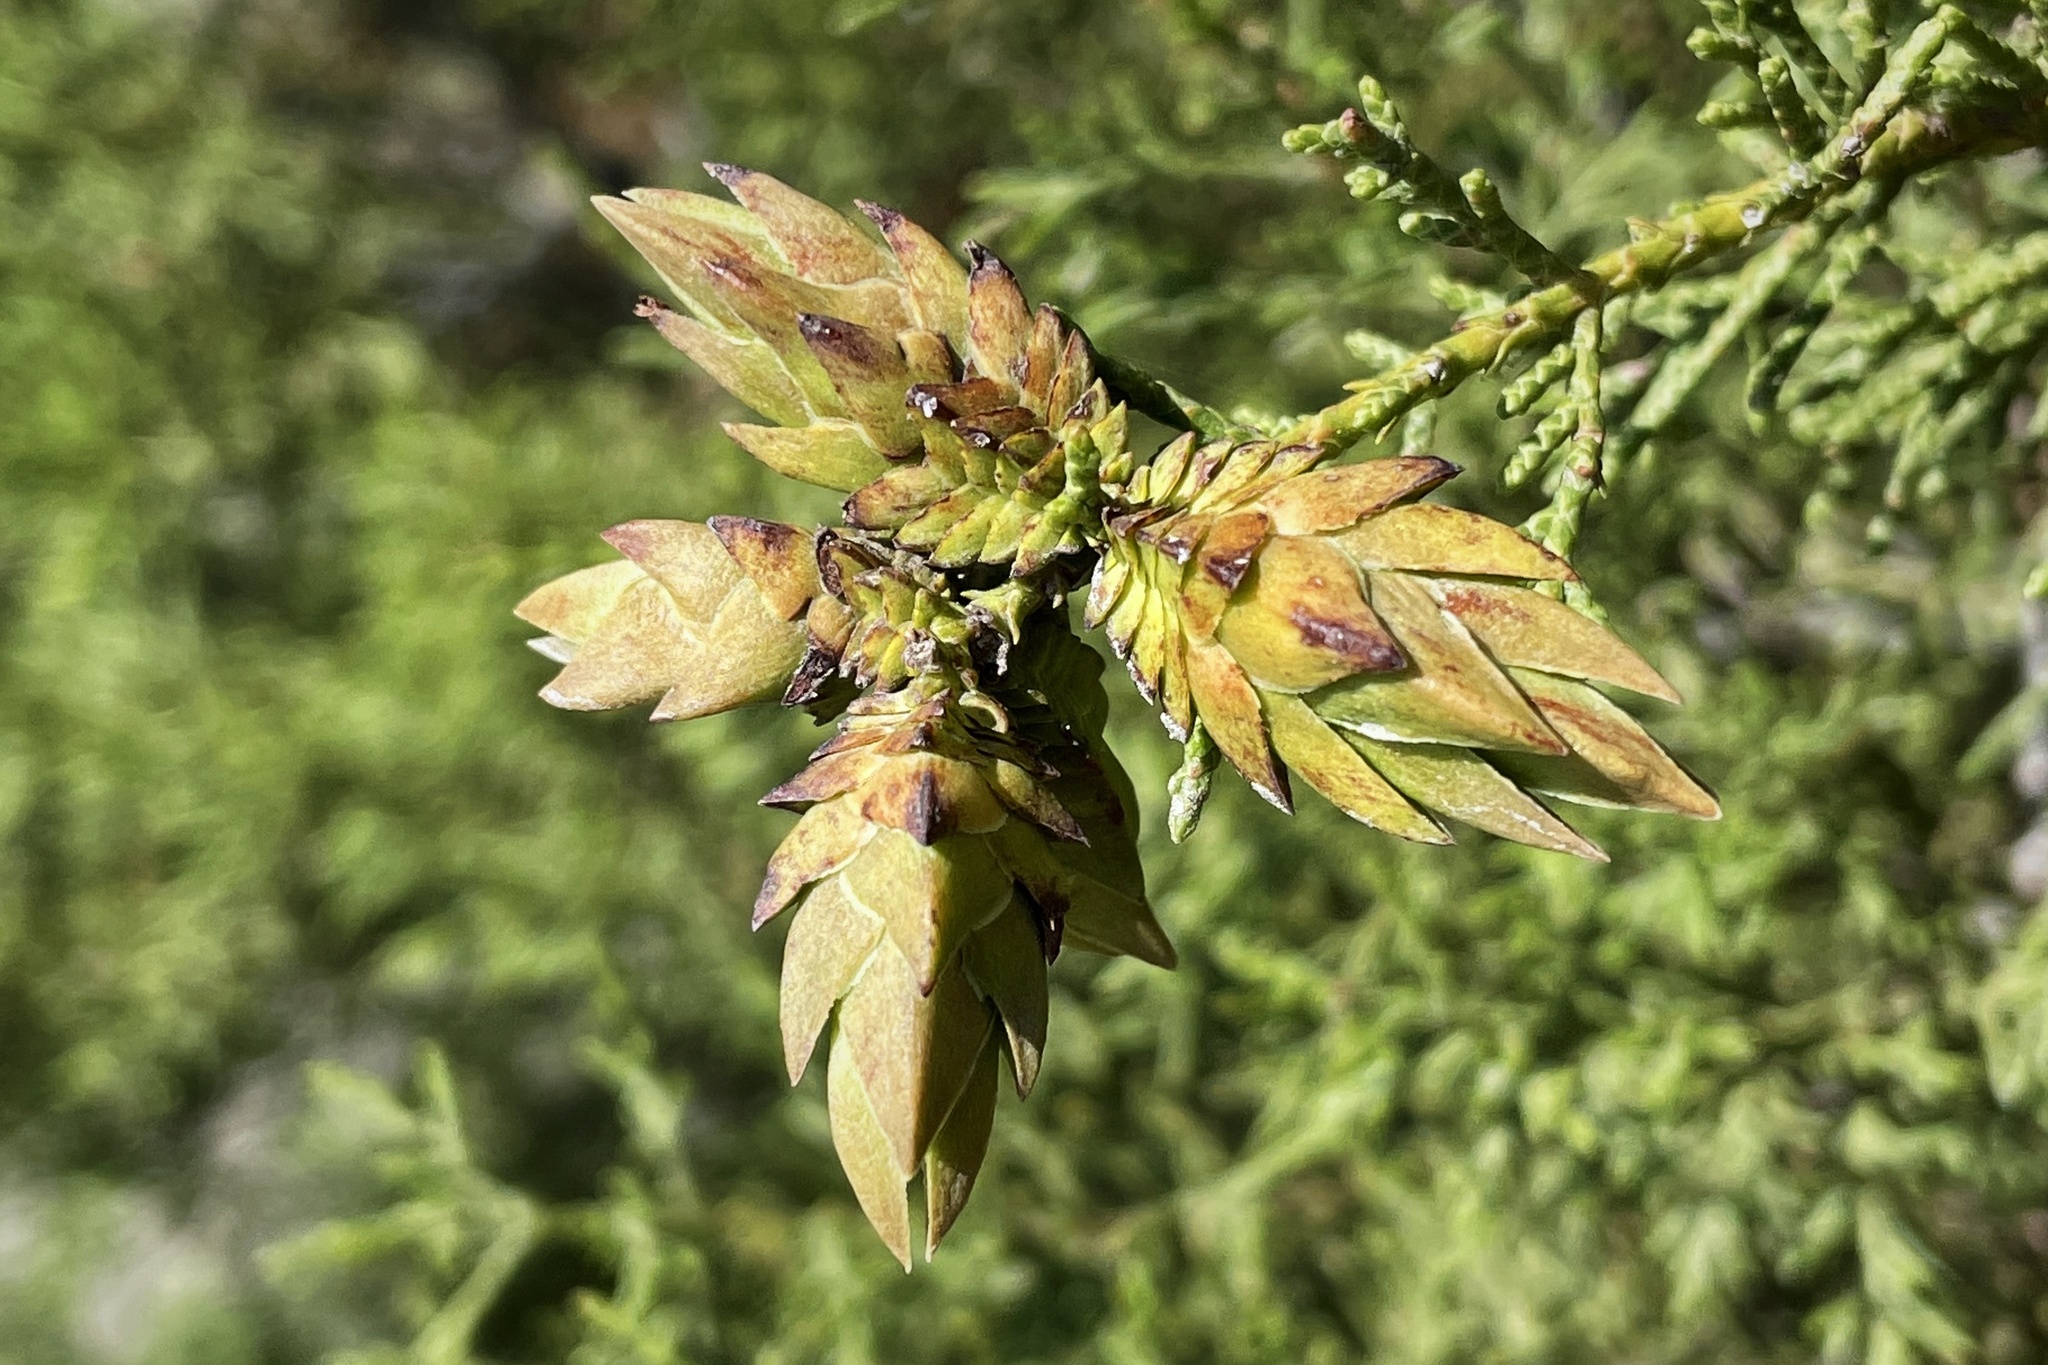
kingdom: Animalia
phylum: Arthropoda
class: Insecta
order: Diptera
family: Cecidomyiidae
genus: Oligotrophus
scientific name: Oligotrophus cupressi
